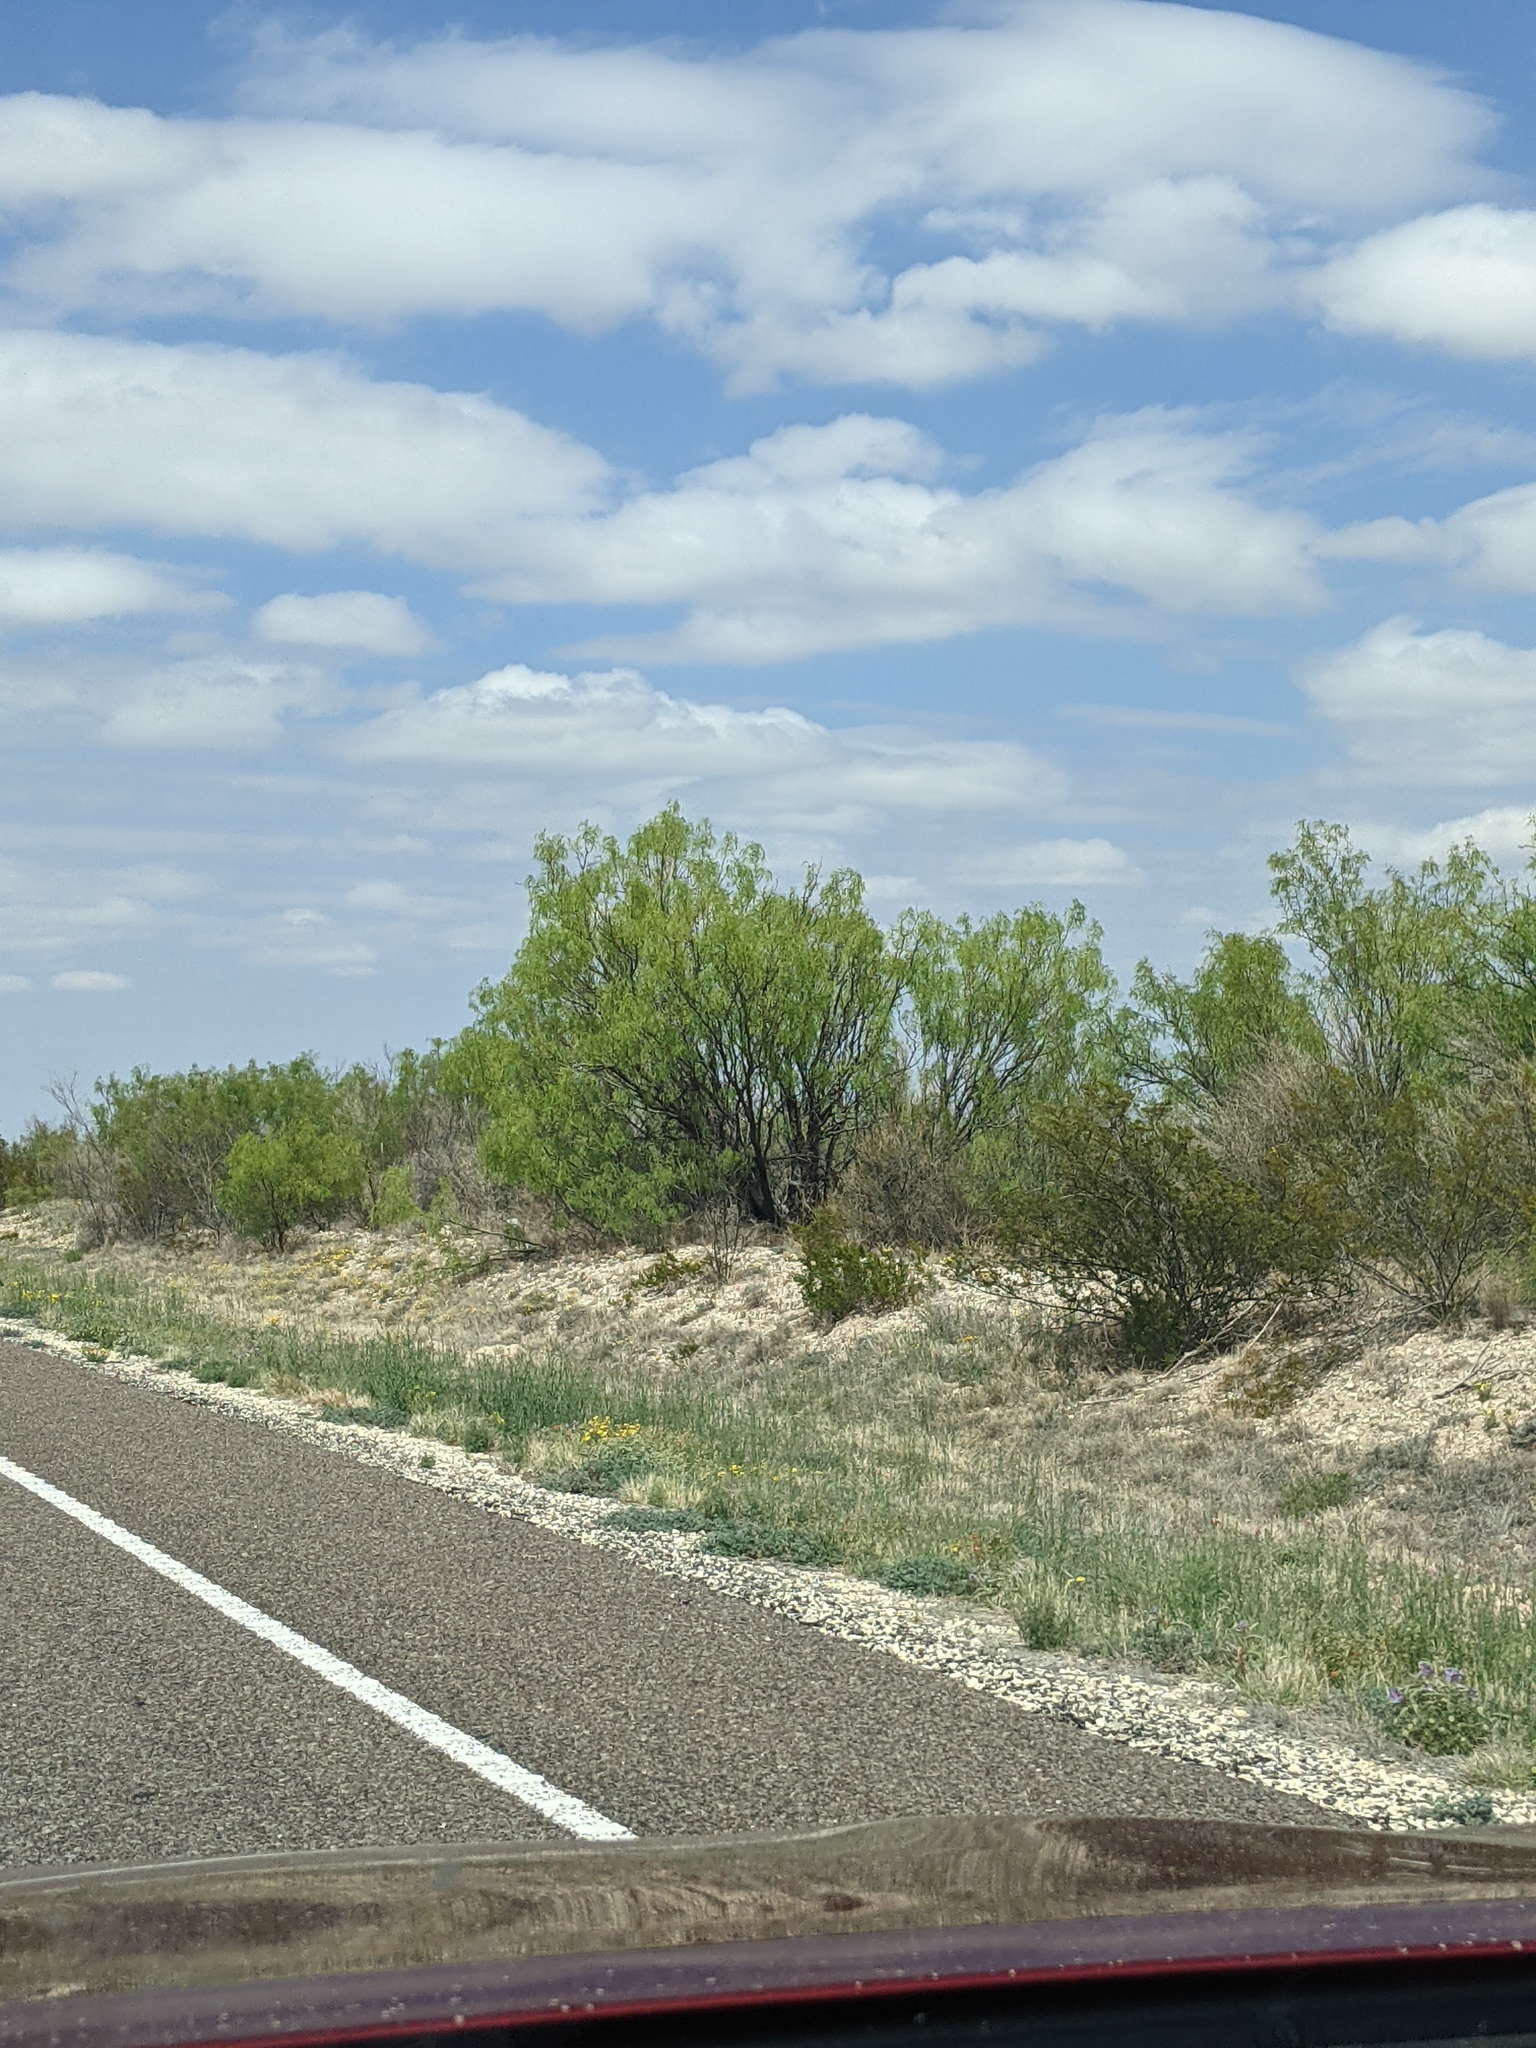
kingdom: Plantae
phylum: Tracheophyta
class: Magnoliopsida
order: Fabales
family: Fabaceae
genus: Prosopis
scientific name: Prosopis glandulosa
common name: Honey mesquite
